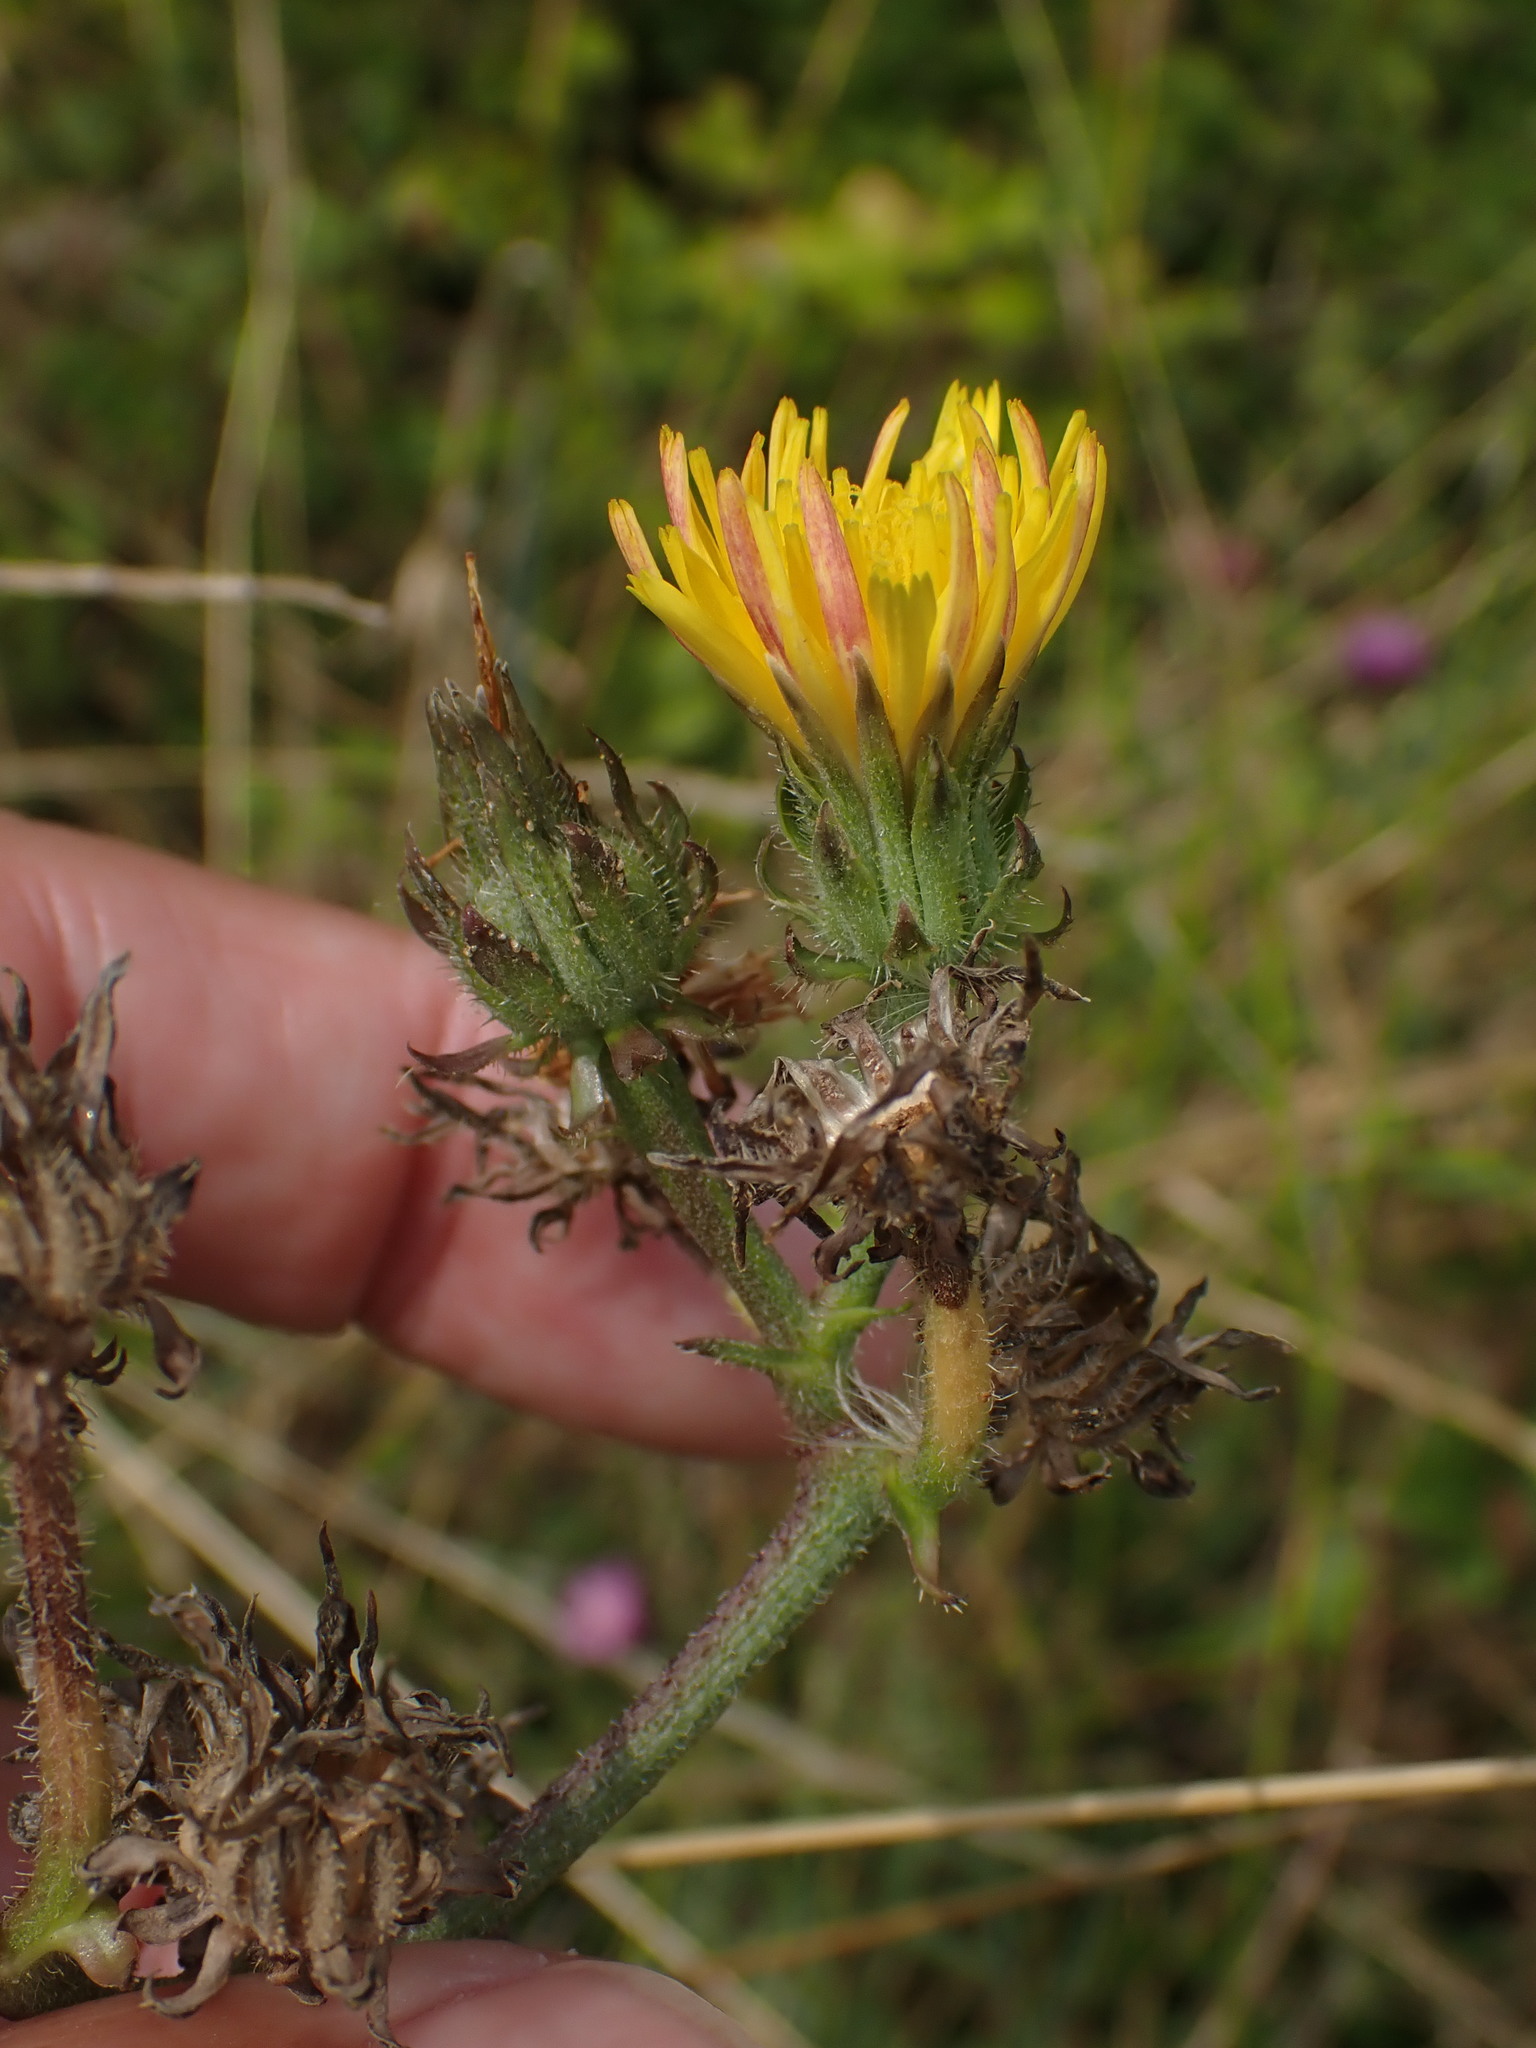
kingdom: Plantae
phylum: Tracheophyta
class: Magnoliopsida
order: Asterales
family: Asteraceae
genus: Picris
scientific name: Picris hieracioides
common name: Hawkweed oxtongue
